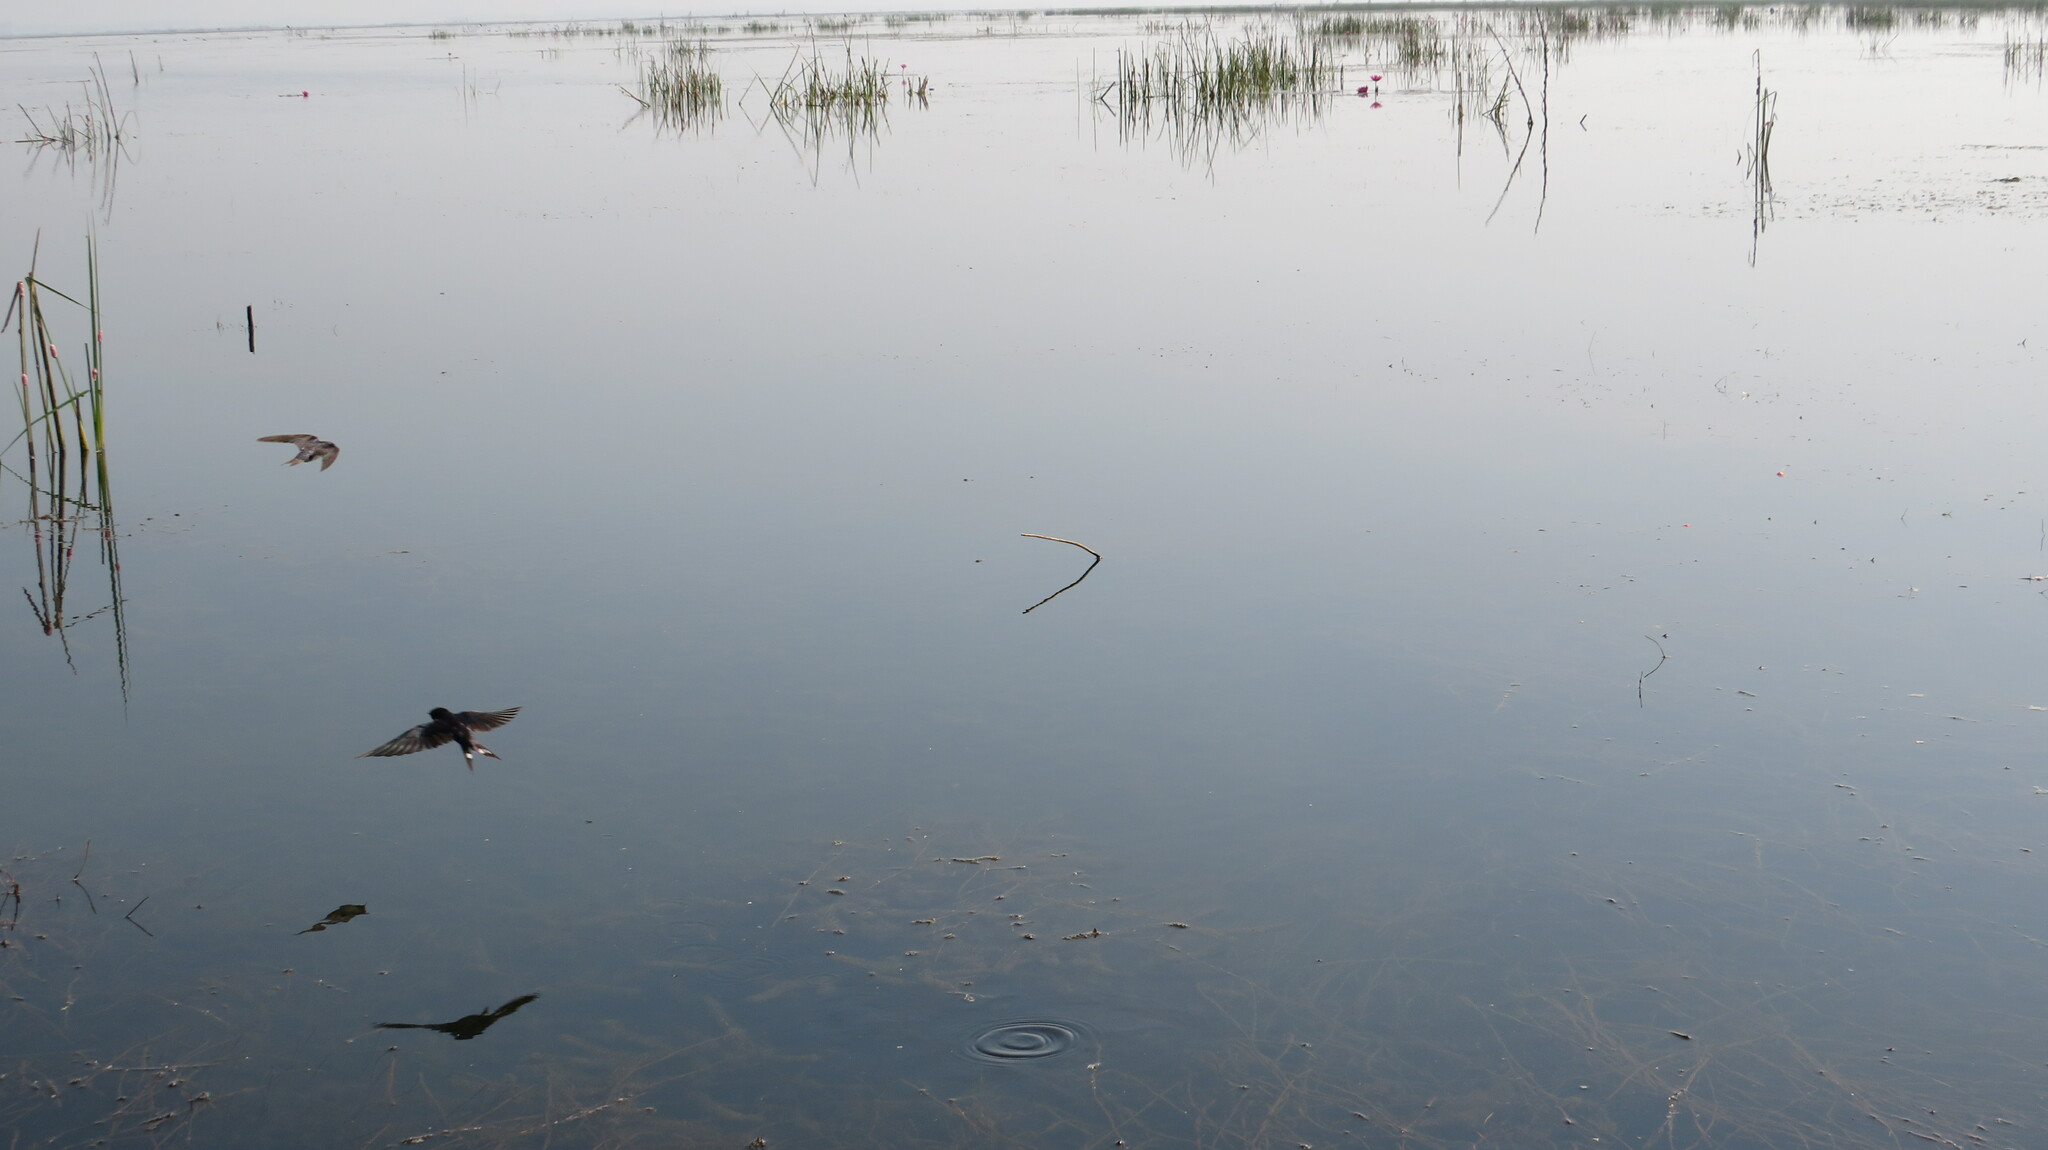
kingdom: Animalia
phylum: Chordata
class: Aves
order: Passeriformes
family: Hirundinidae
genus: Hirundo
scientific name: Hirundo rustica
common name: Barn swallow
